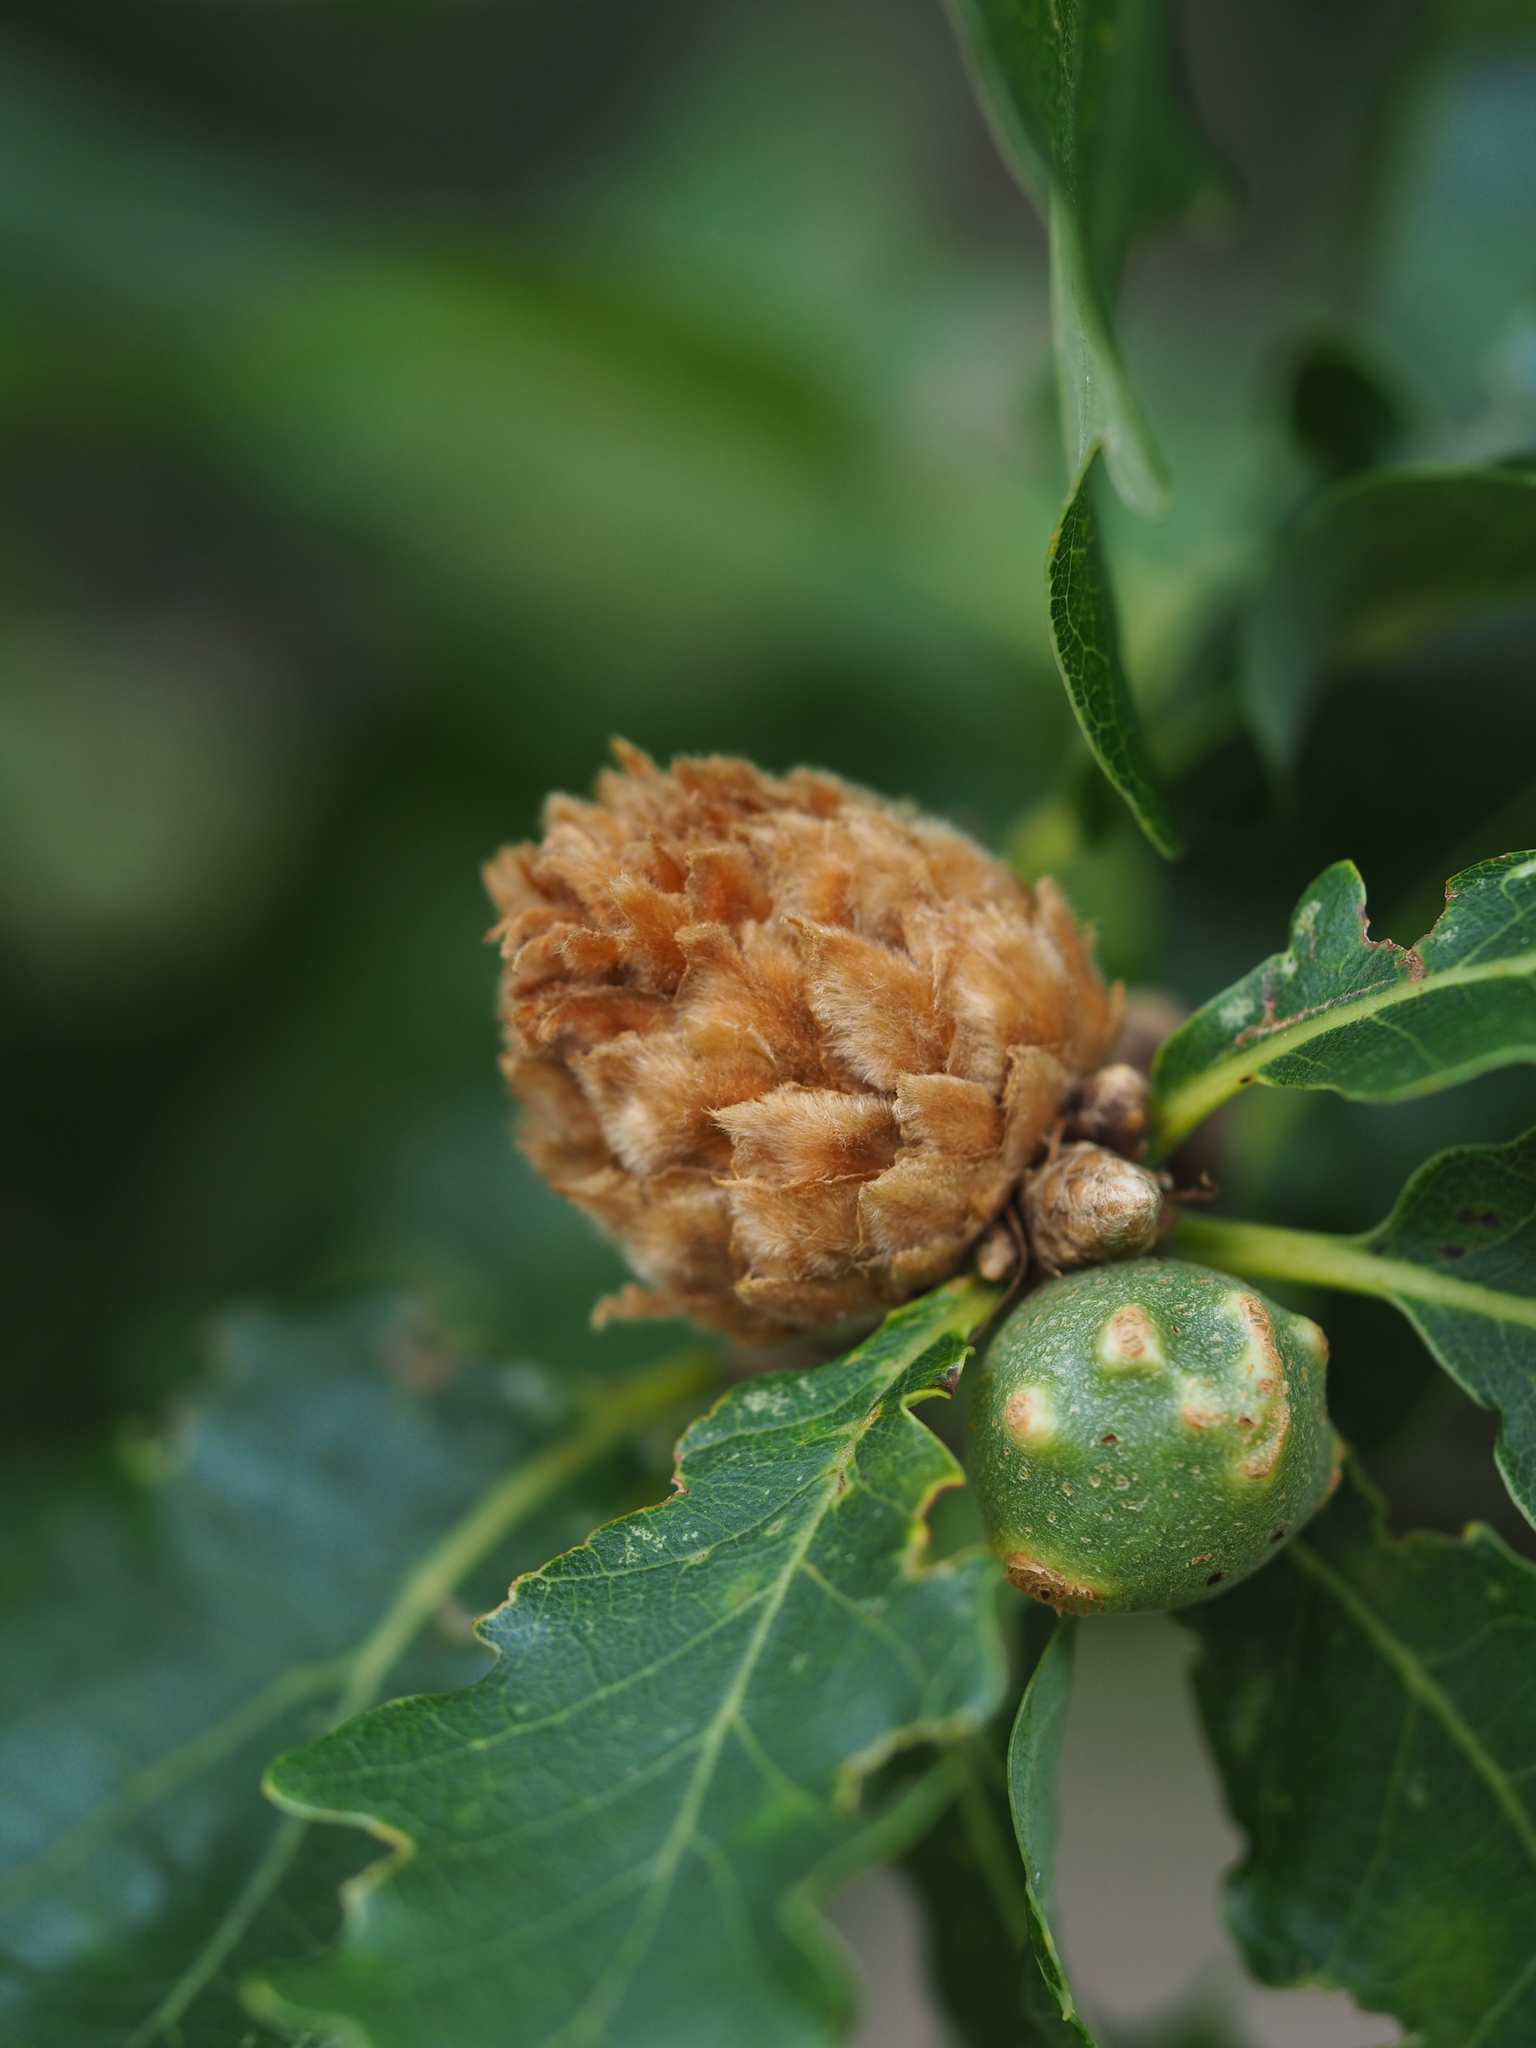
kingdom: Animalia
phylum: Arthropoda
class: Insecta
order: Hymenoptera
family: Cynipidae
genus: Andricus
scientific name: Andricus foecundatrix
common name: Artichoke gall
